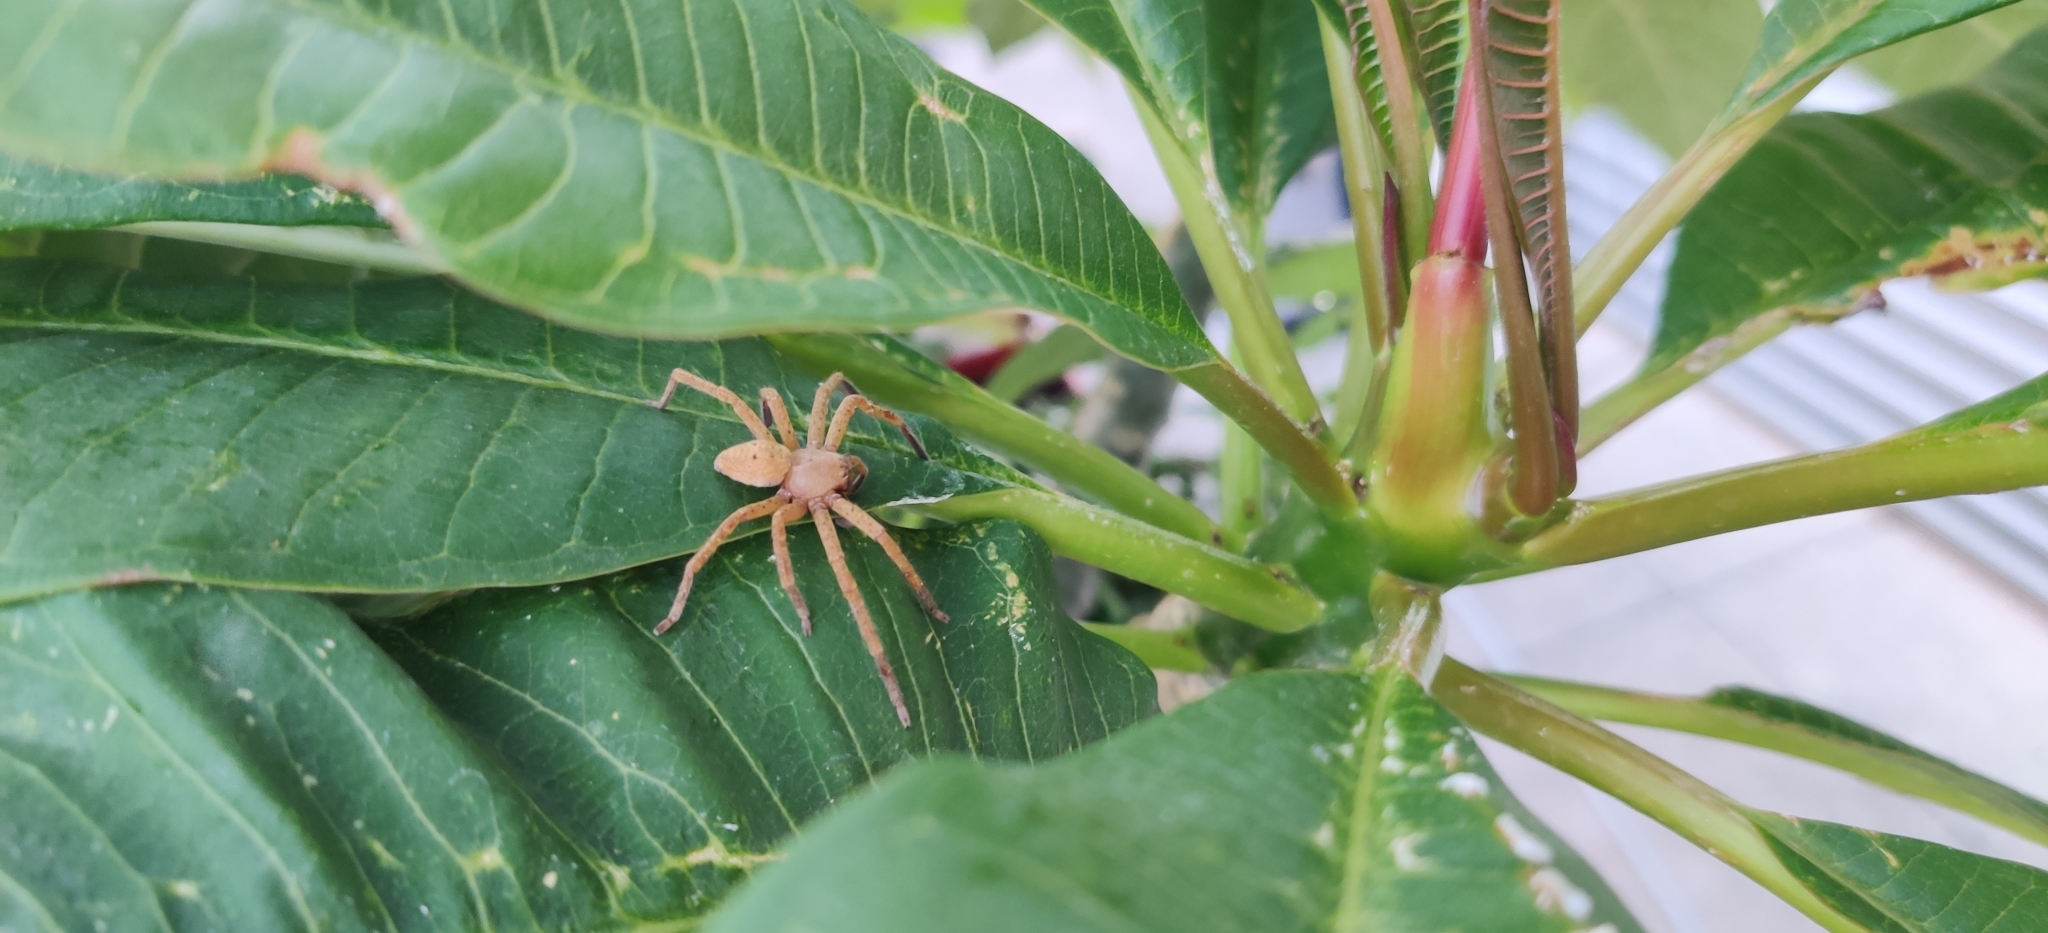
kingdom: Animalia
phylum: Arthropoda
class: Arachnida
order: Araneae
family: Sparassidae
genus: Olios
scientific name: Olios argelasius
